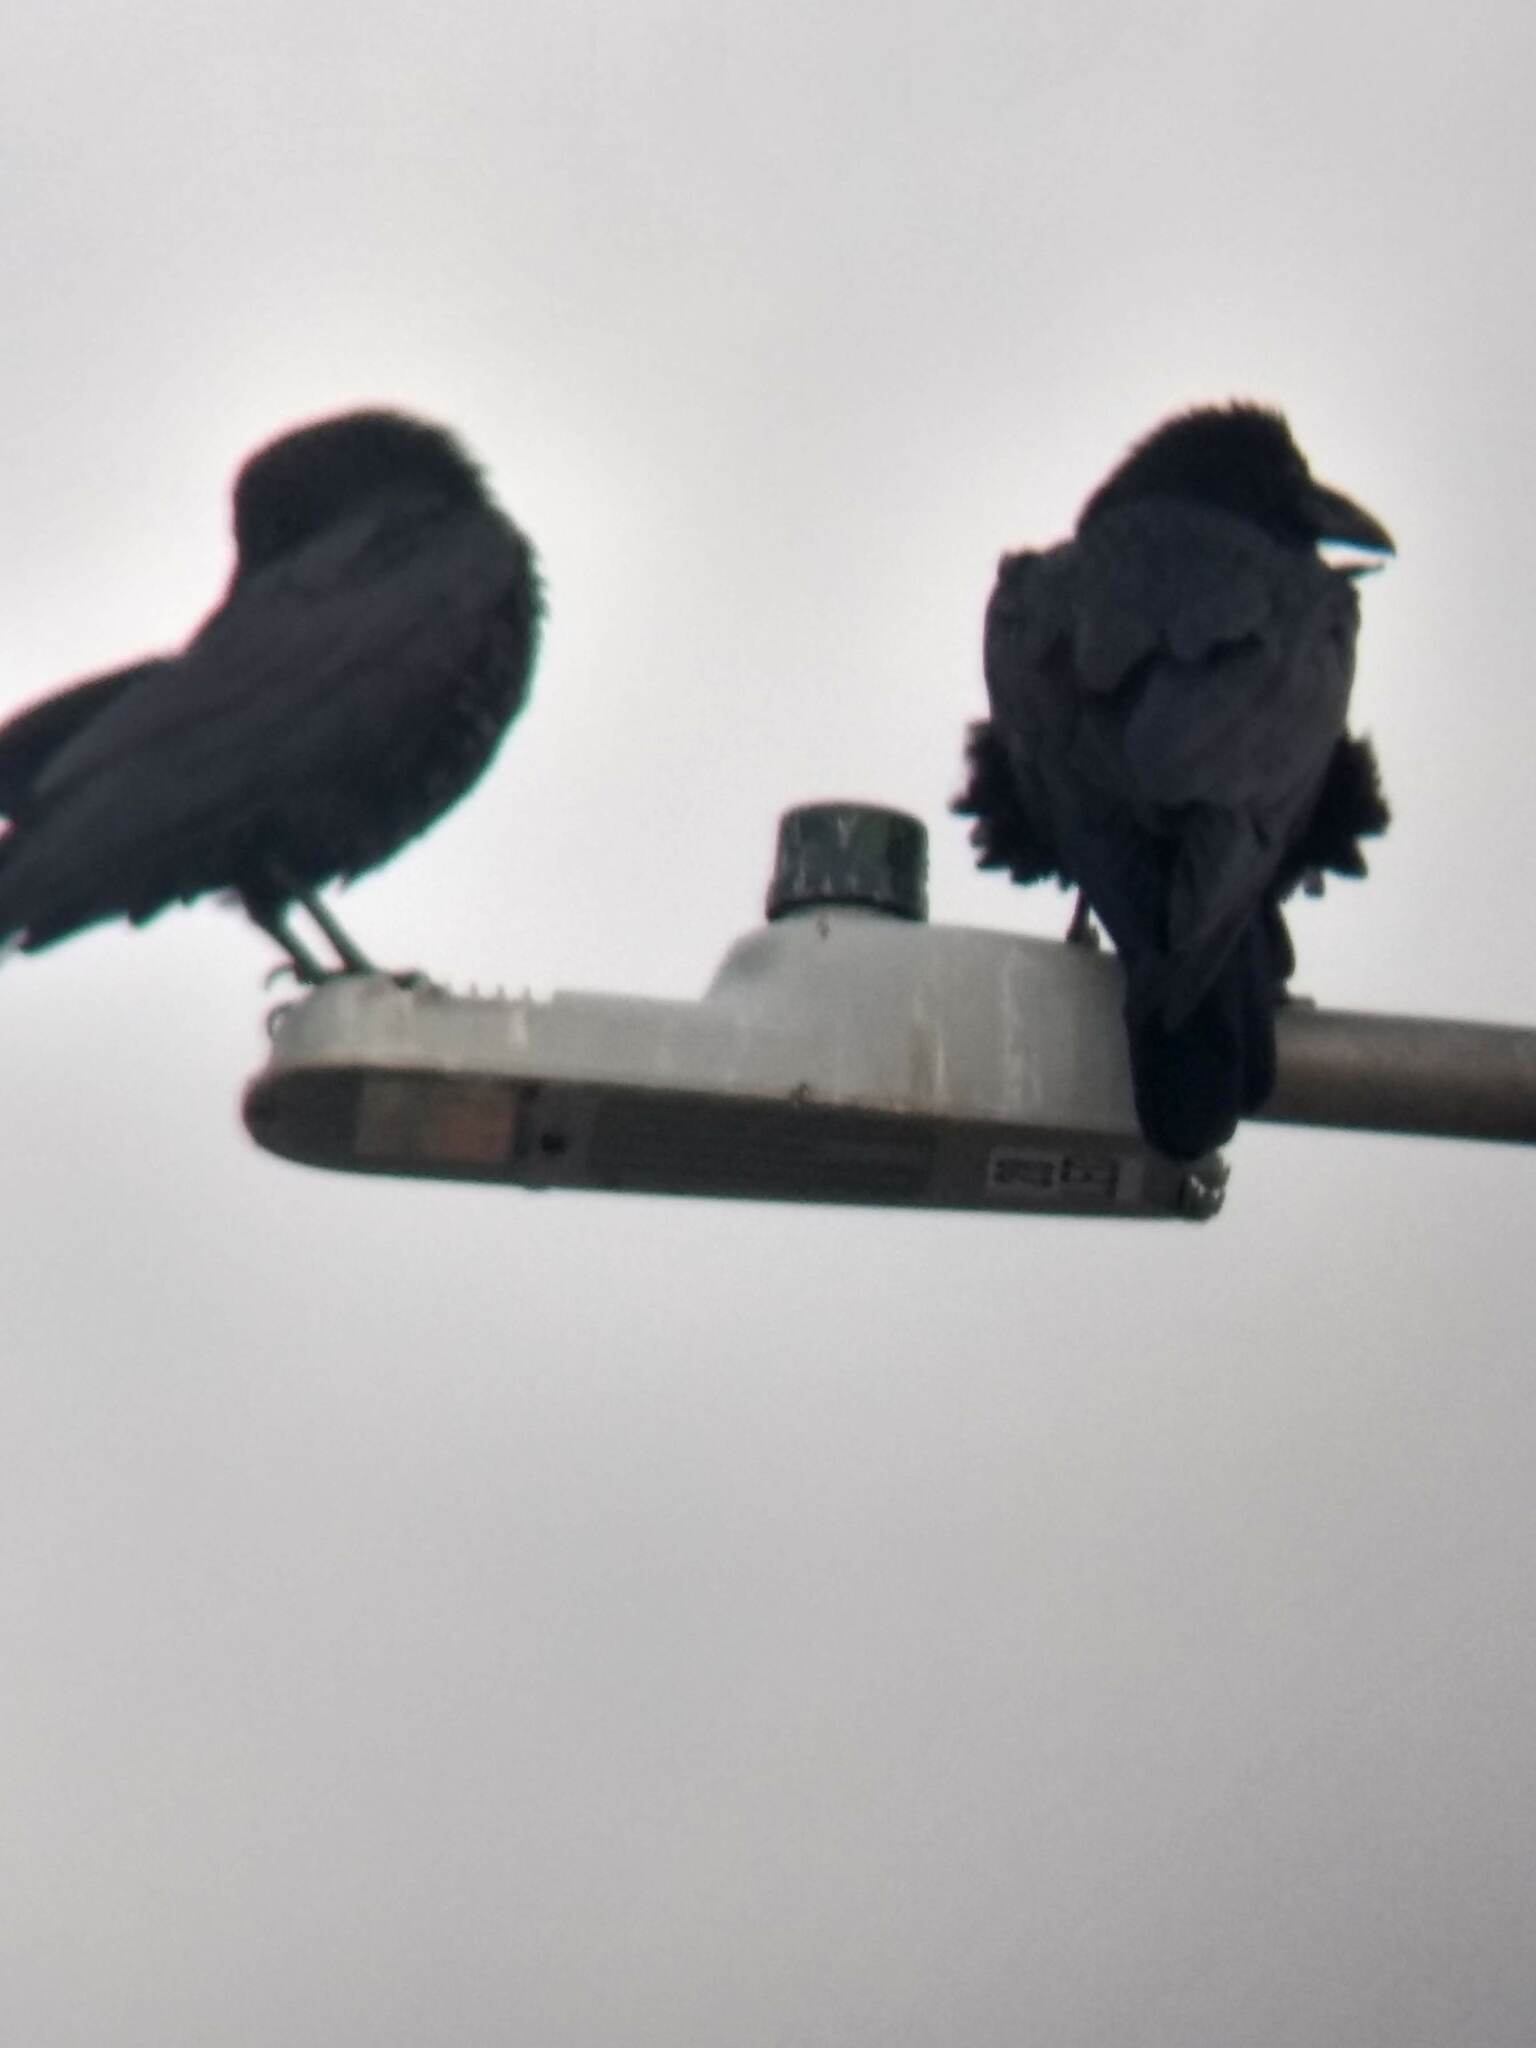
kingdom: Animalia
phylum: Chordata
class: Aves
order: Passeriformes
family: Corvidae
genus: Corvus
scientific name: Corvus corax
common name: Common raven
